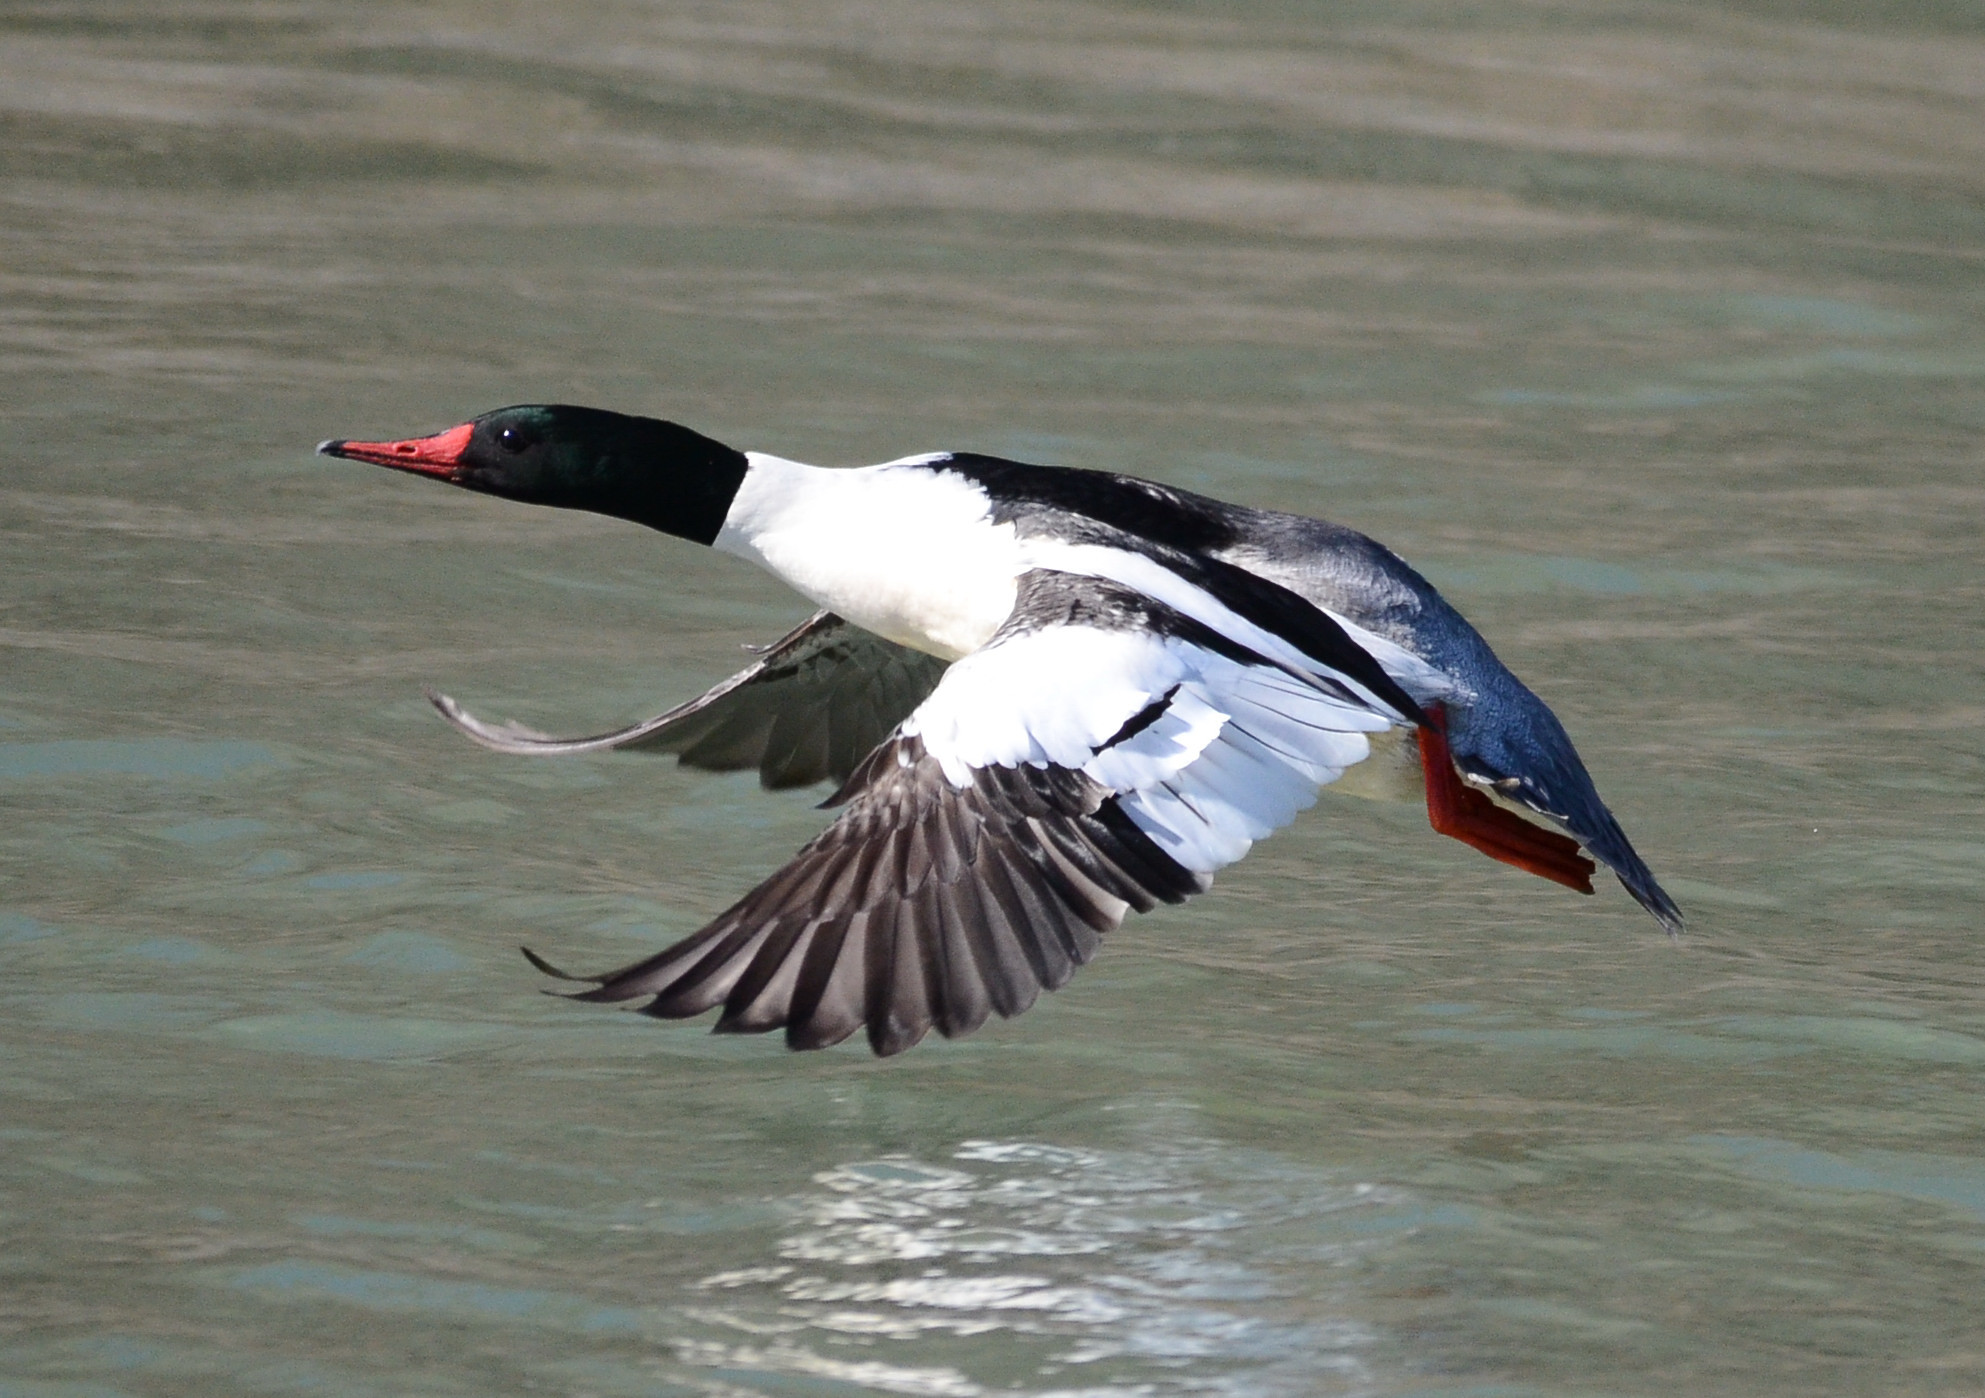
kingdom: Animalia
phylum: Chordata
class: Aves
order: Anseriformes
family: Anatidae
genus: Mergus
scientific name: Mergus merganser
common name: Common merganser
